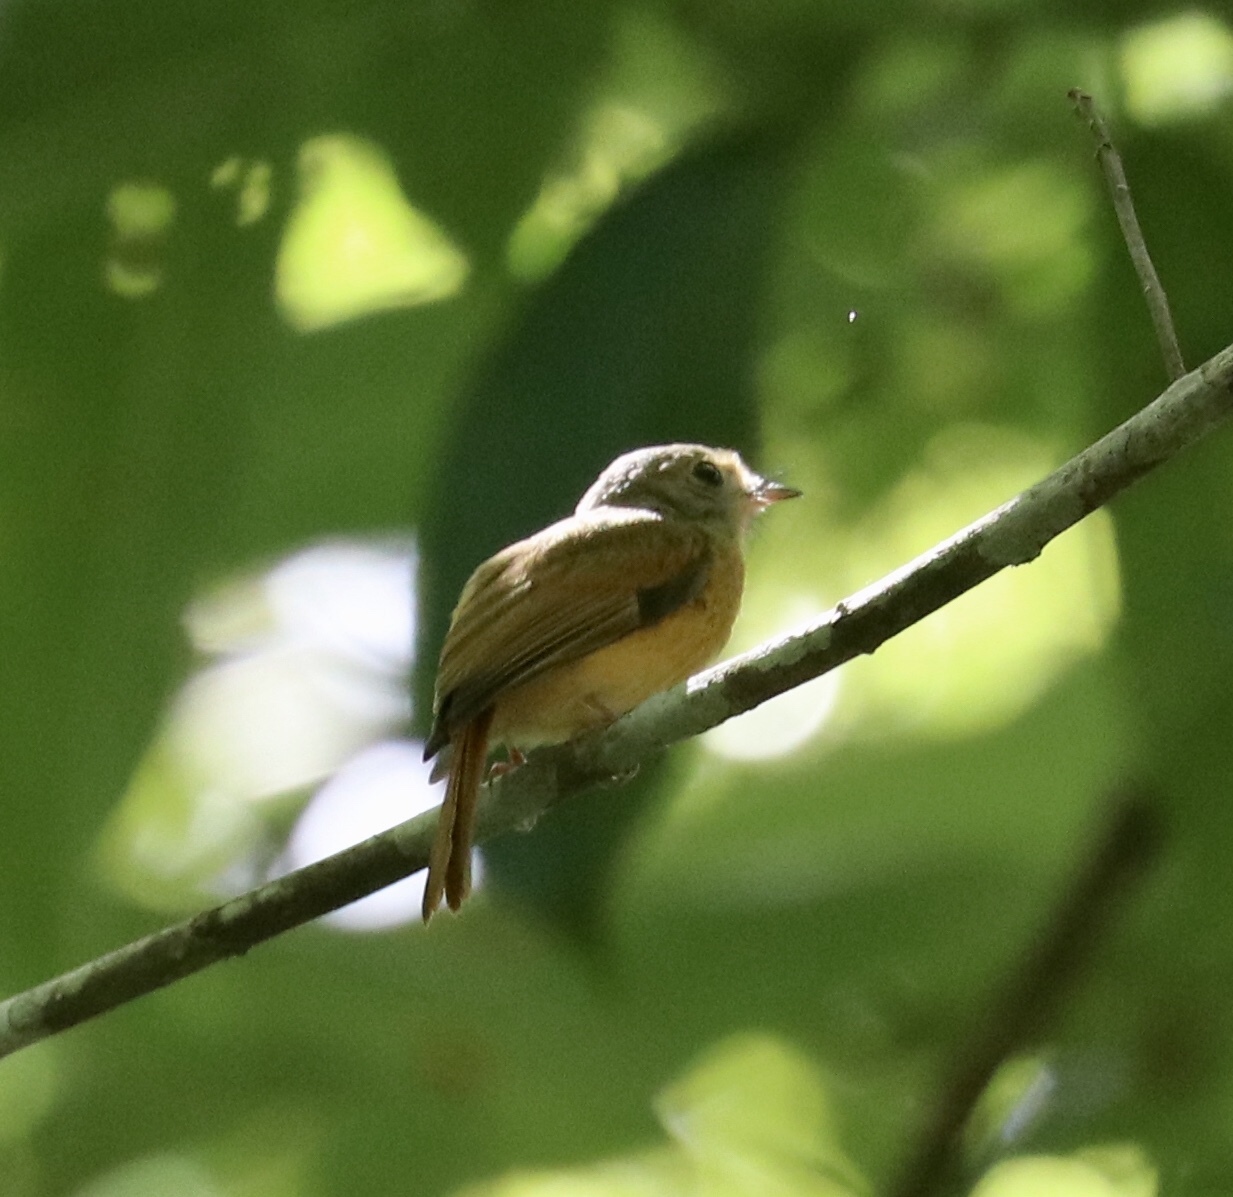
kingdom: Animalia
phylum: Chordata
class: Aves
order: Passeriformes
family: Tyrannidae
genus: Terenotriccus
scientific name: Terenotriccus erythrurus
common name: Ruddy-tailed flycatcher
